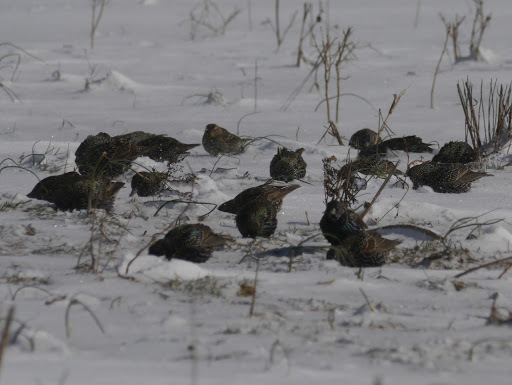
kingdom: Animalia
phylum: Chordata
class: Aves
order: Passeriformes
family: Sturnidae
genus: Sturnus
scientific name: Sturnus vulgaris
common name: Common starling
